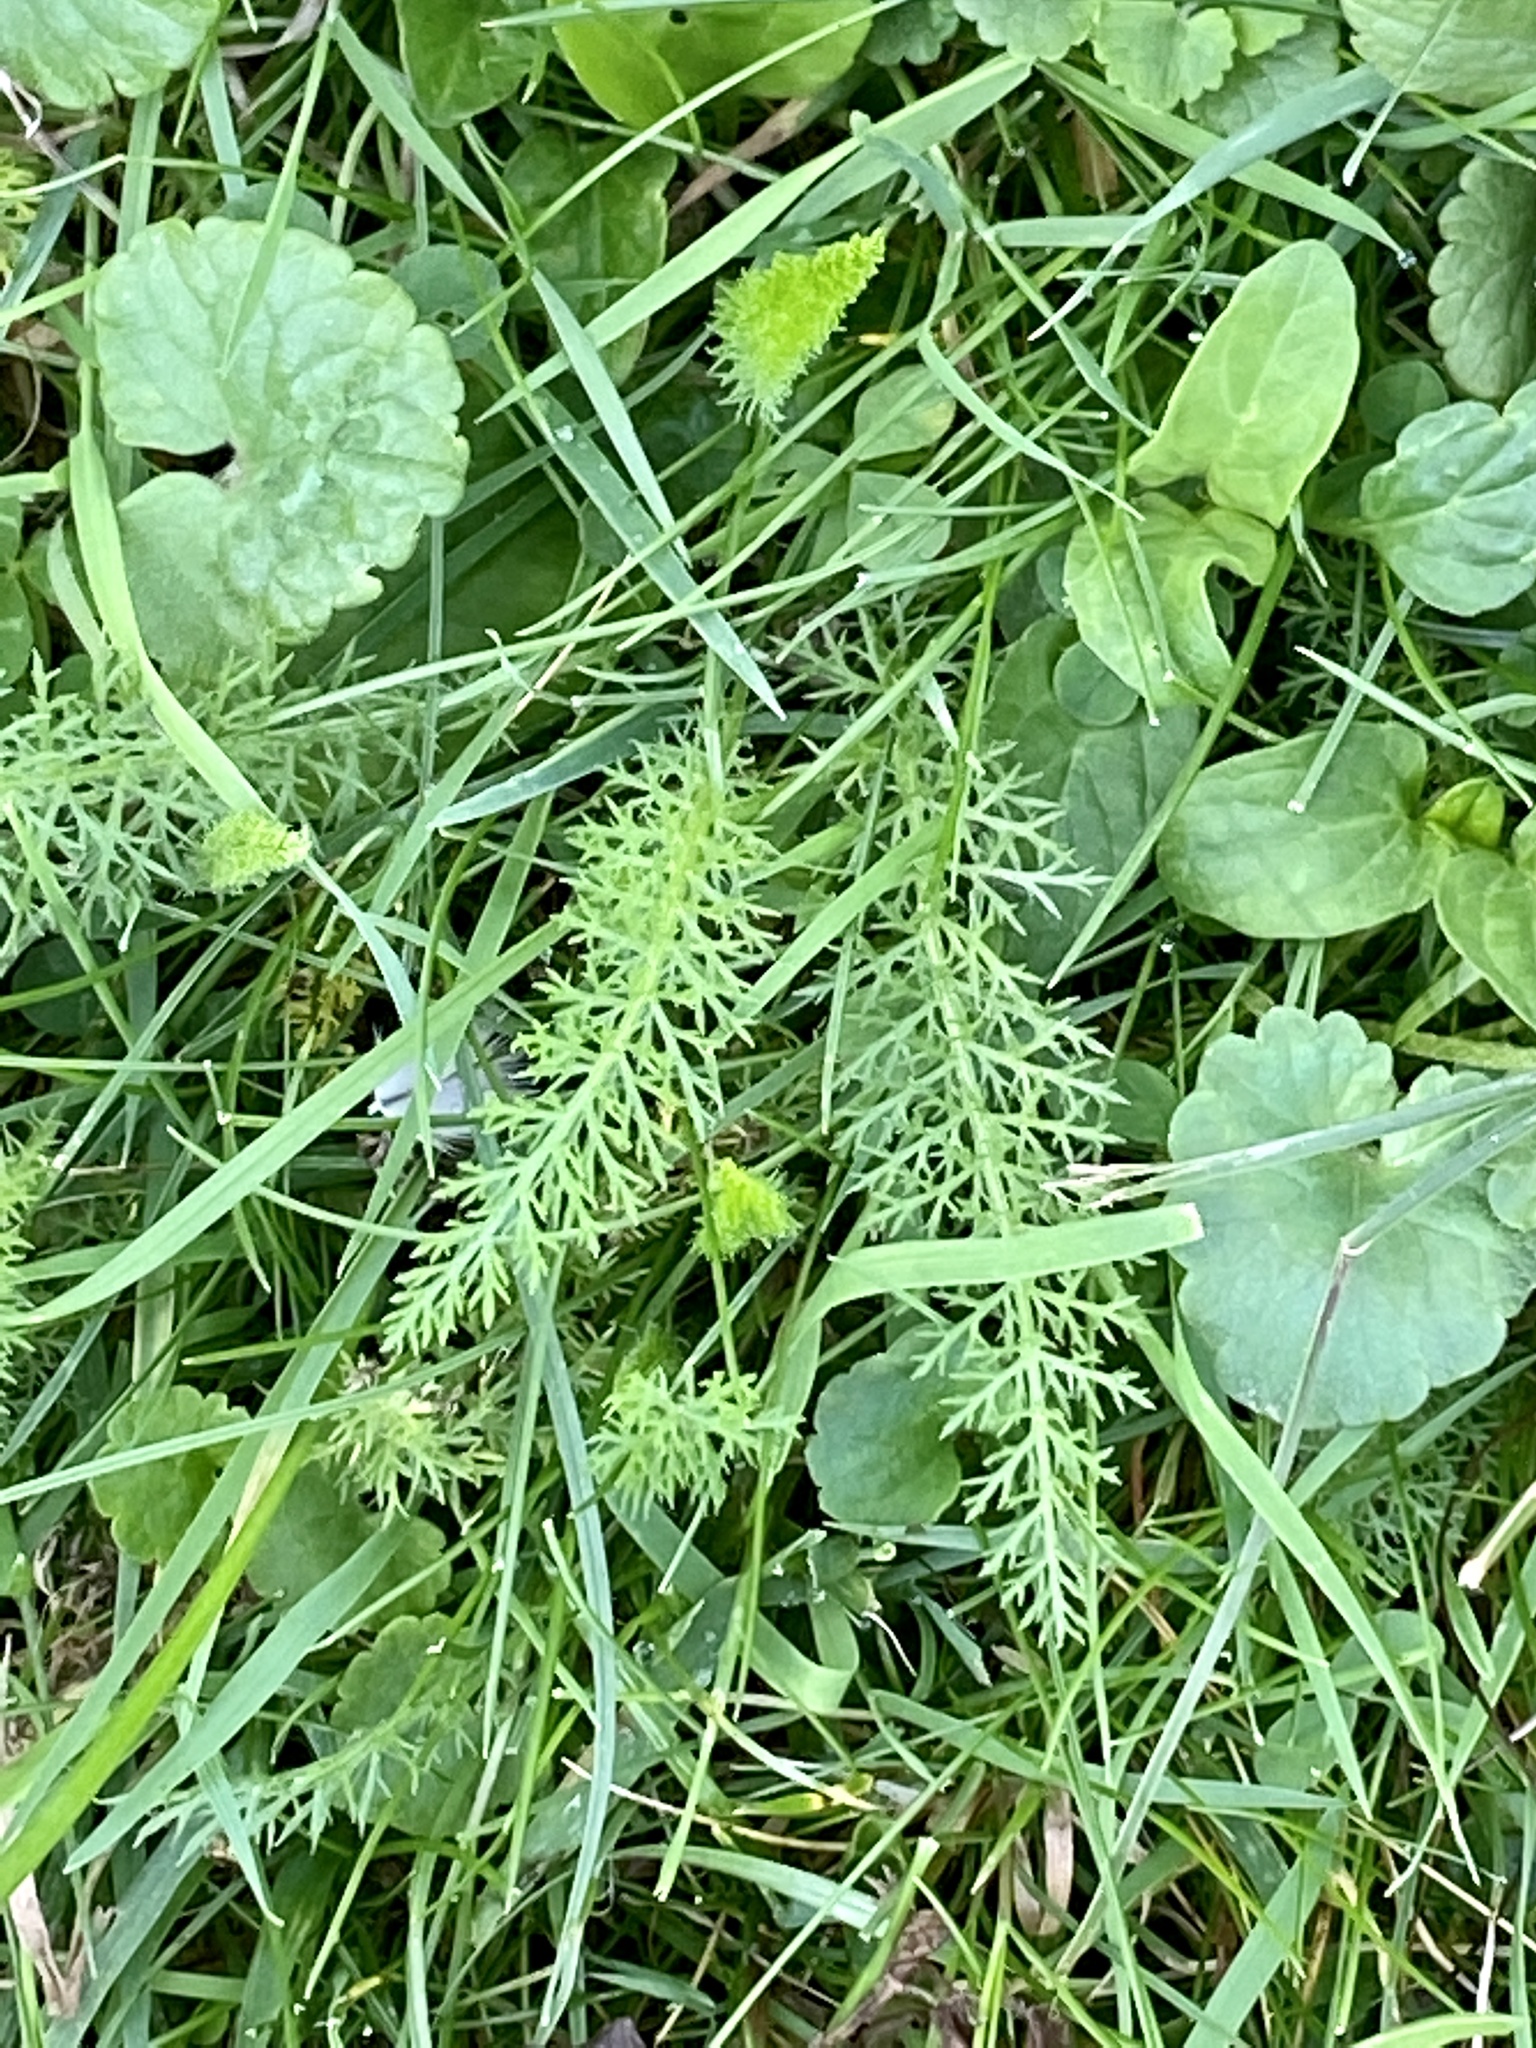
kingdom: Plantae
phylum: Tracheophyta
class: Magnoliopsida
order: Asterales
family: Asteraceae
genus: Achillea
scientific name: Achillea millefolium
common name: Yarrow
